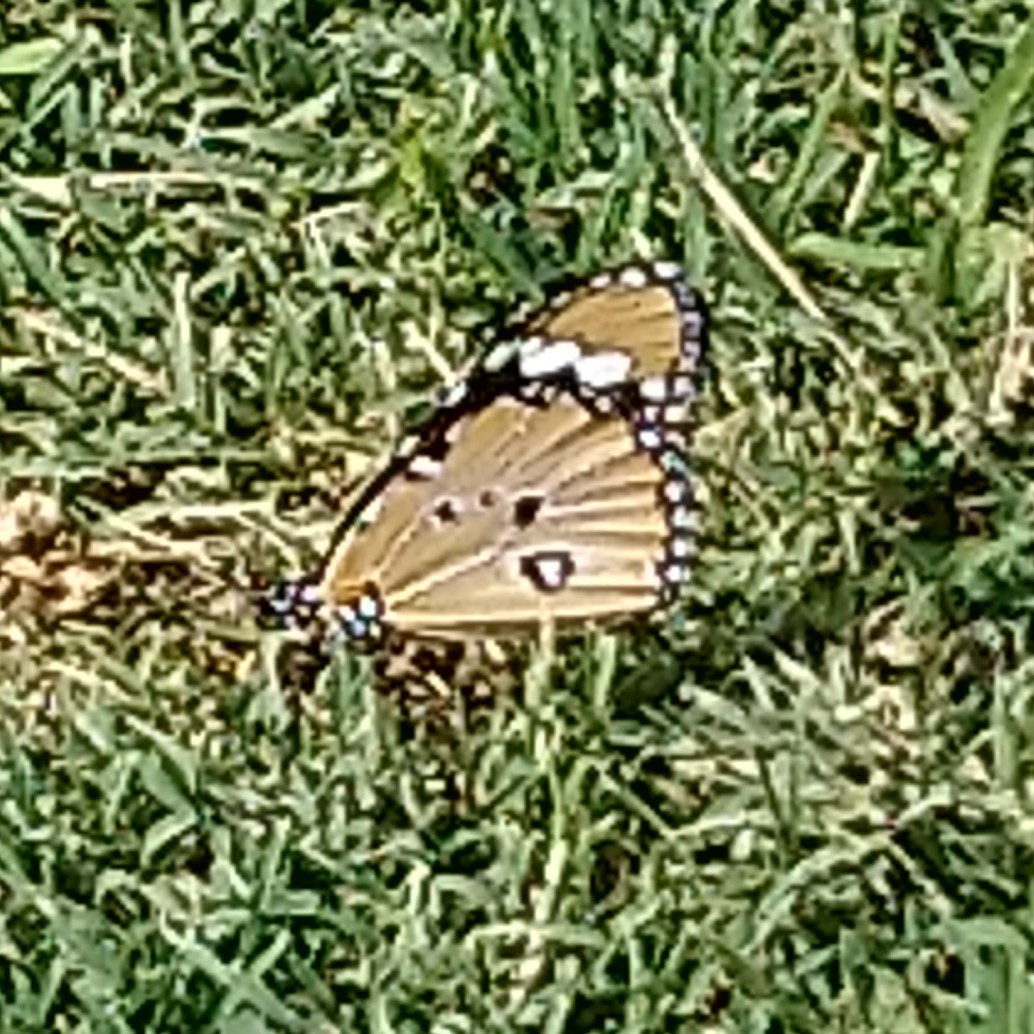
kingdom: Animalia
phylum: Arthropoda
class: Insecta
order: Lepidoptera
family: Nymphalidae
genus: Danaus
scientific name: Danaus chrysippus
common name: Plain tiger
